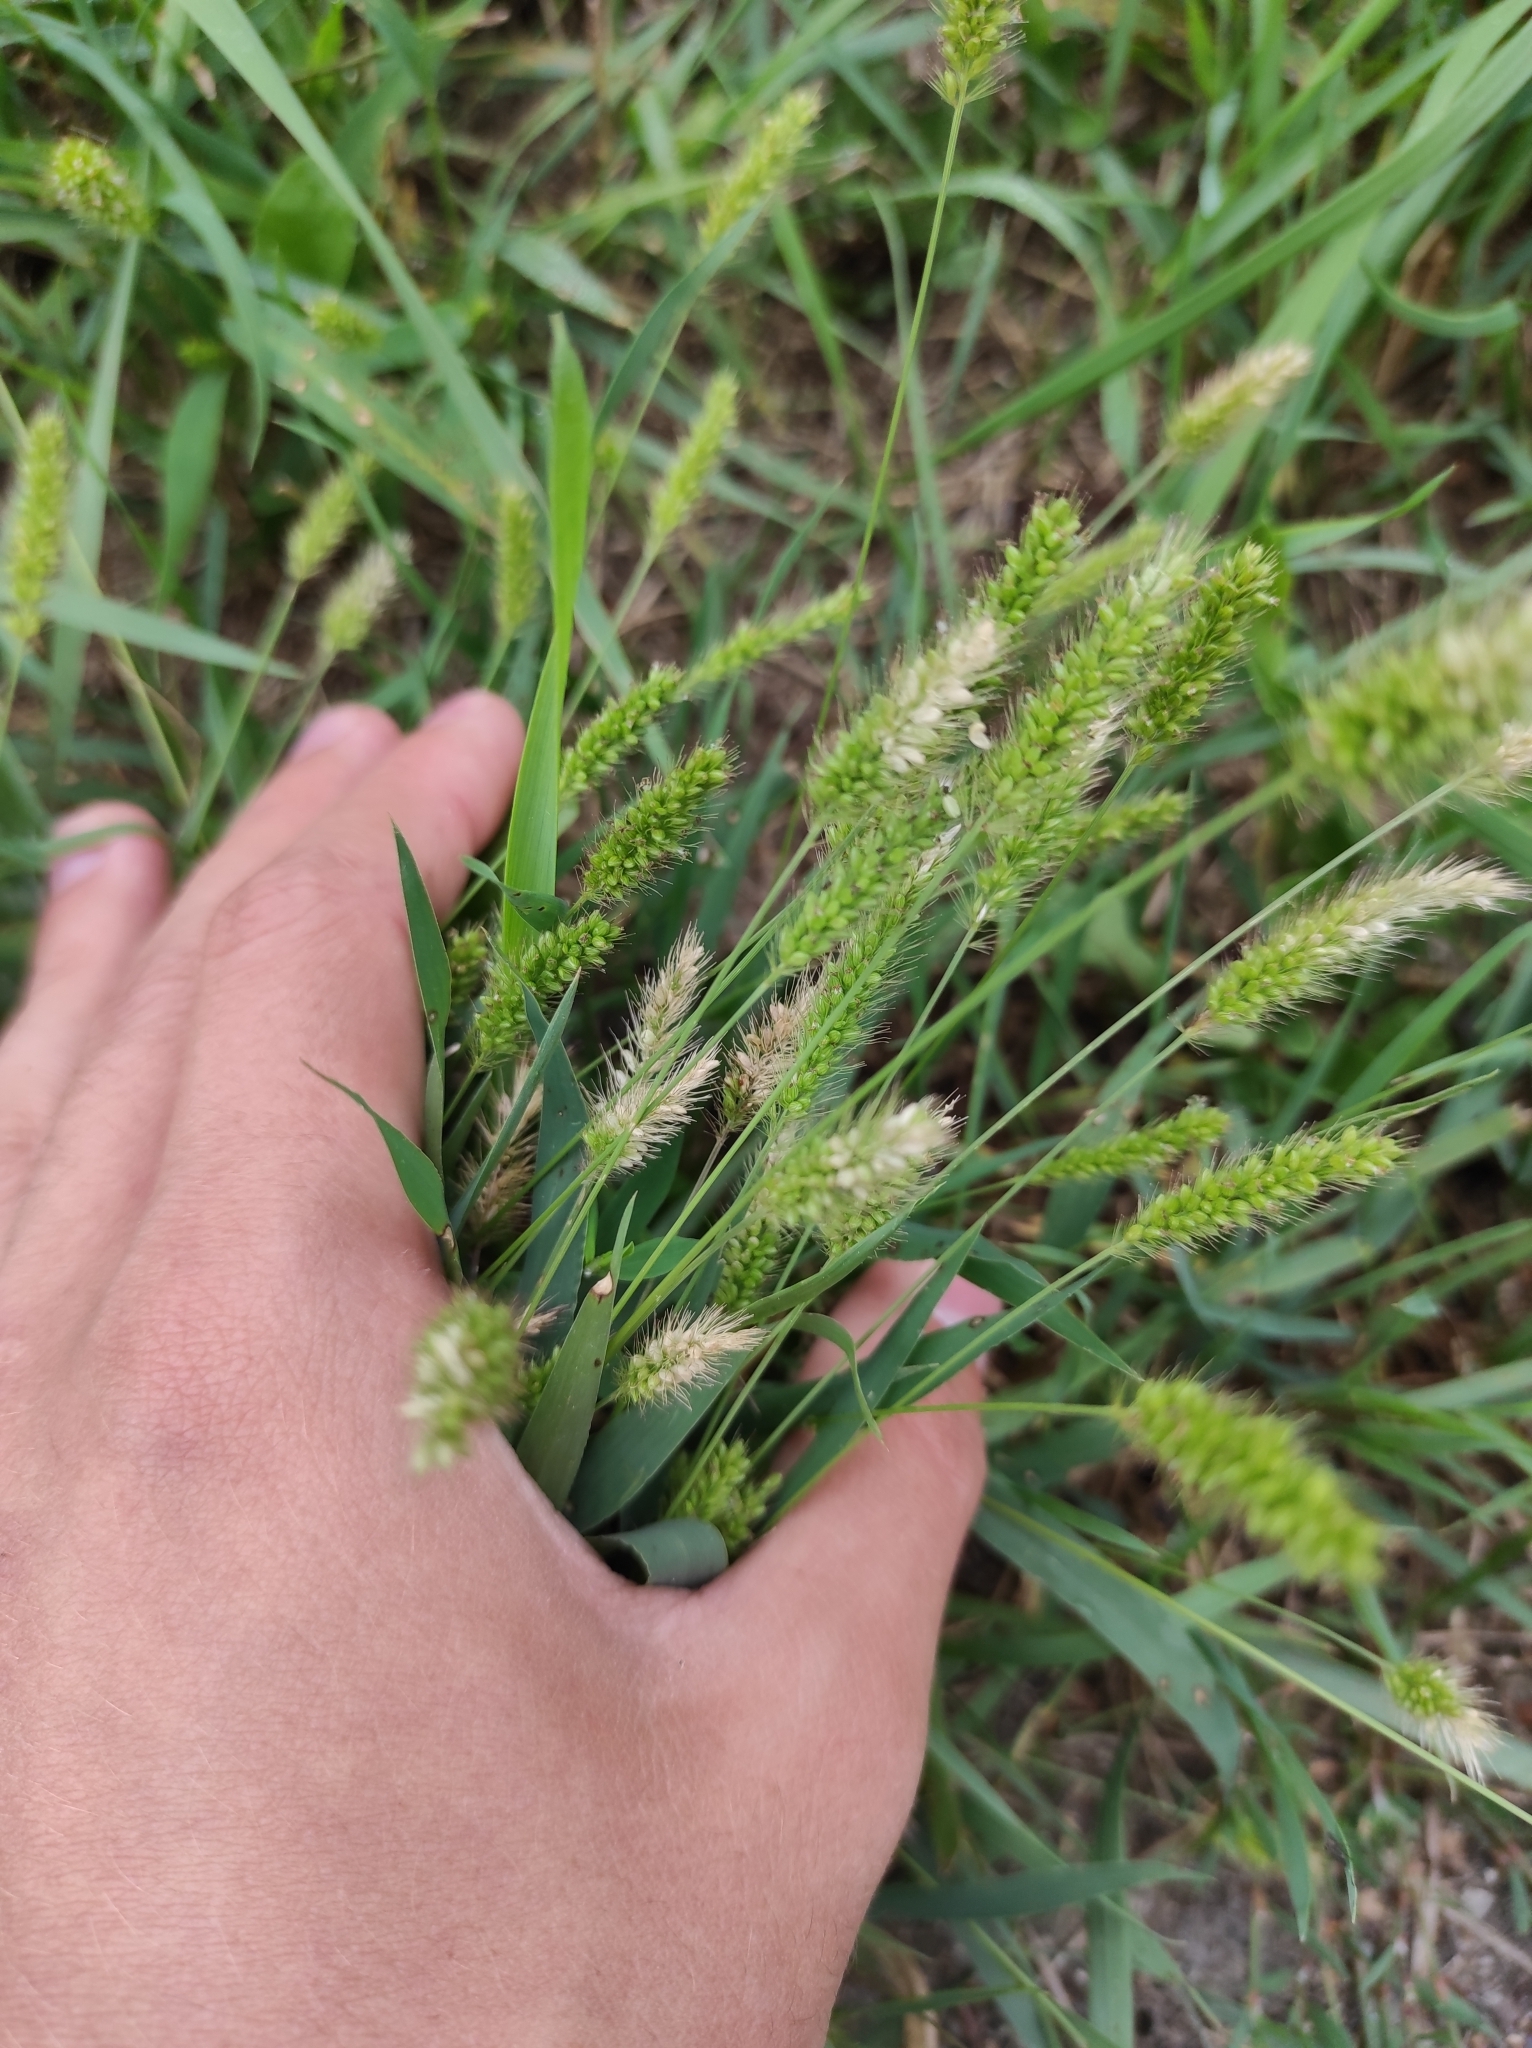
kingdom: Plantae
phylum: Tracheophyta
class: Liliopsida
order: Poales
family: Poaceae
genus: Setaria
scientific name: Setaria viridis
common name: Green bristlegrass
